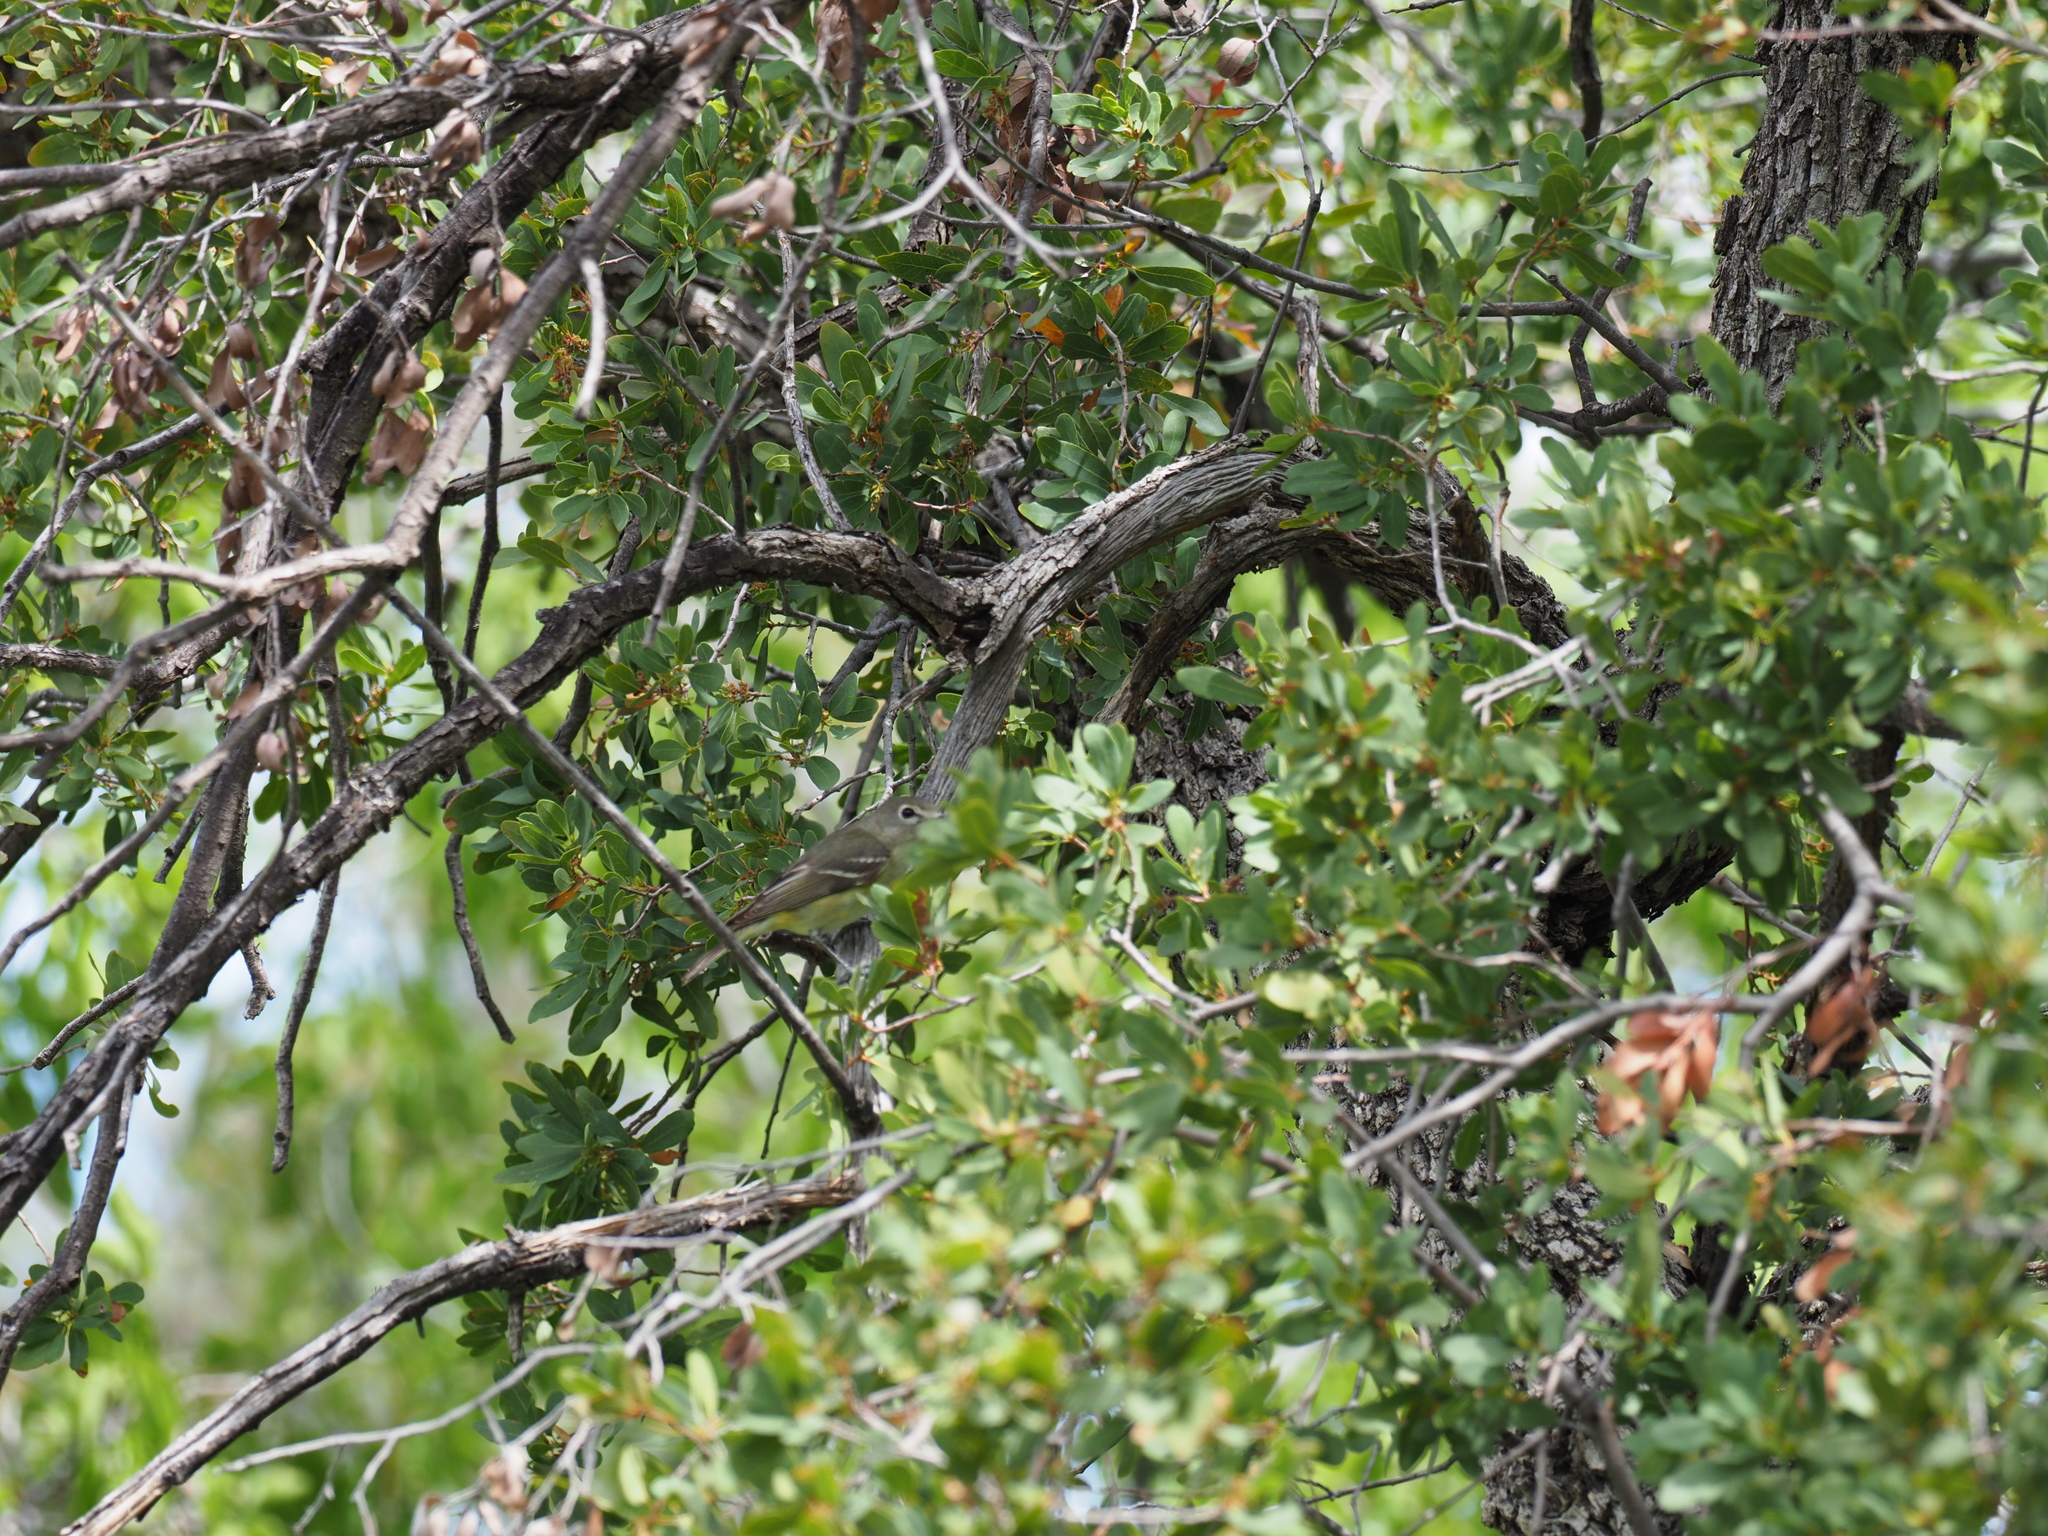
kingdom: Animalia
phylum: Chordata
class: Aves
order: Passeriformes
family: Vireonidae
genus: Vireo
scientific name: Vireo cassinii
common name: Cassin's vireo
